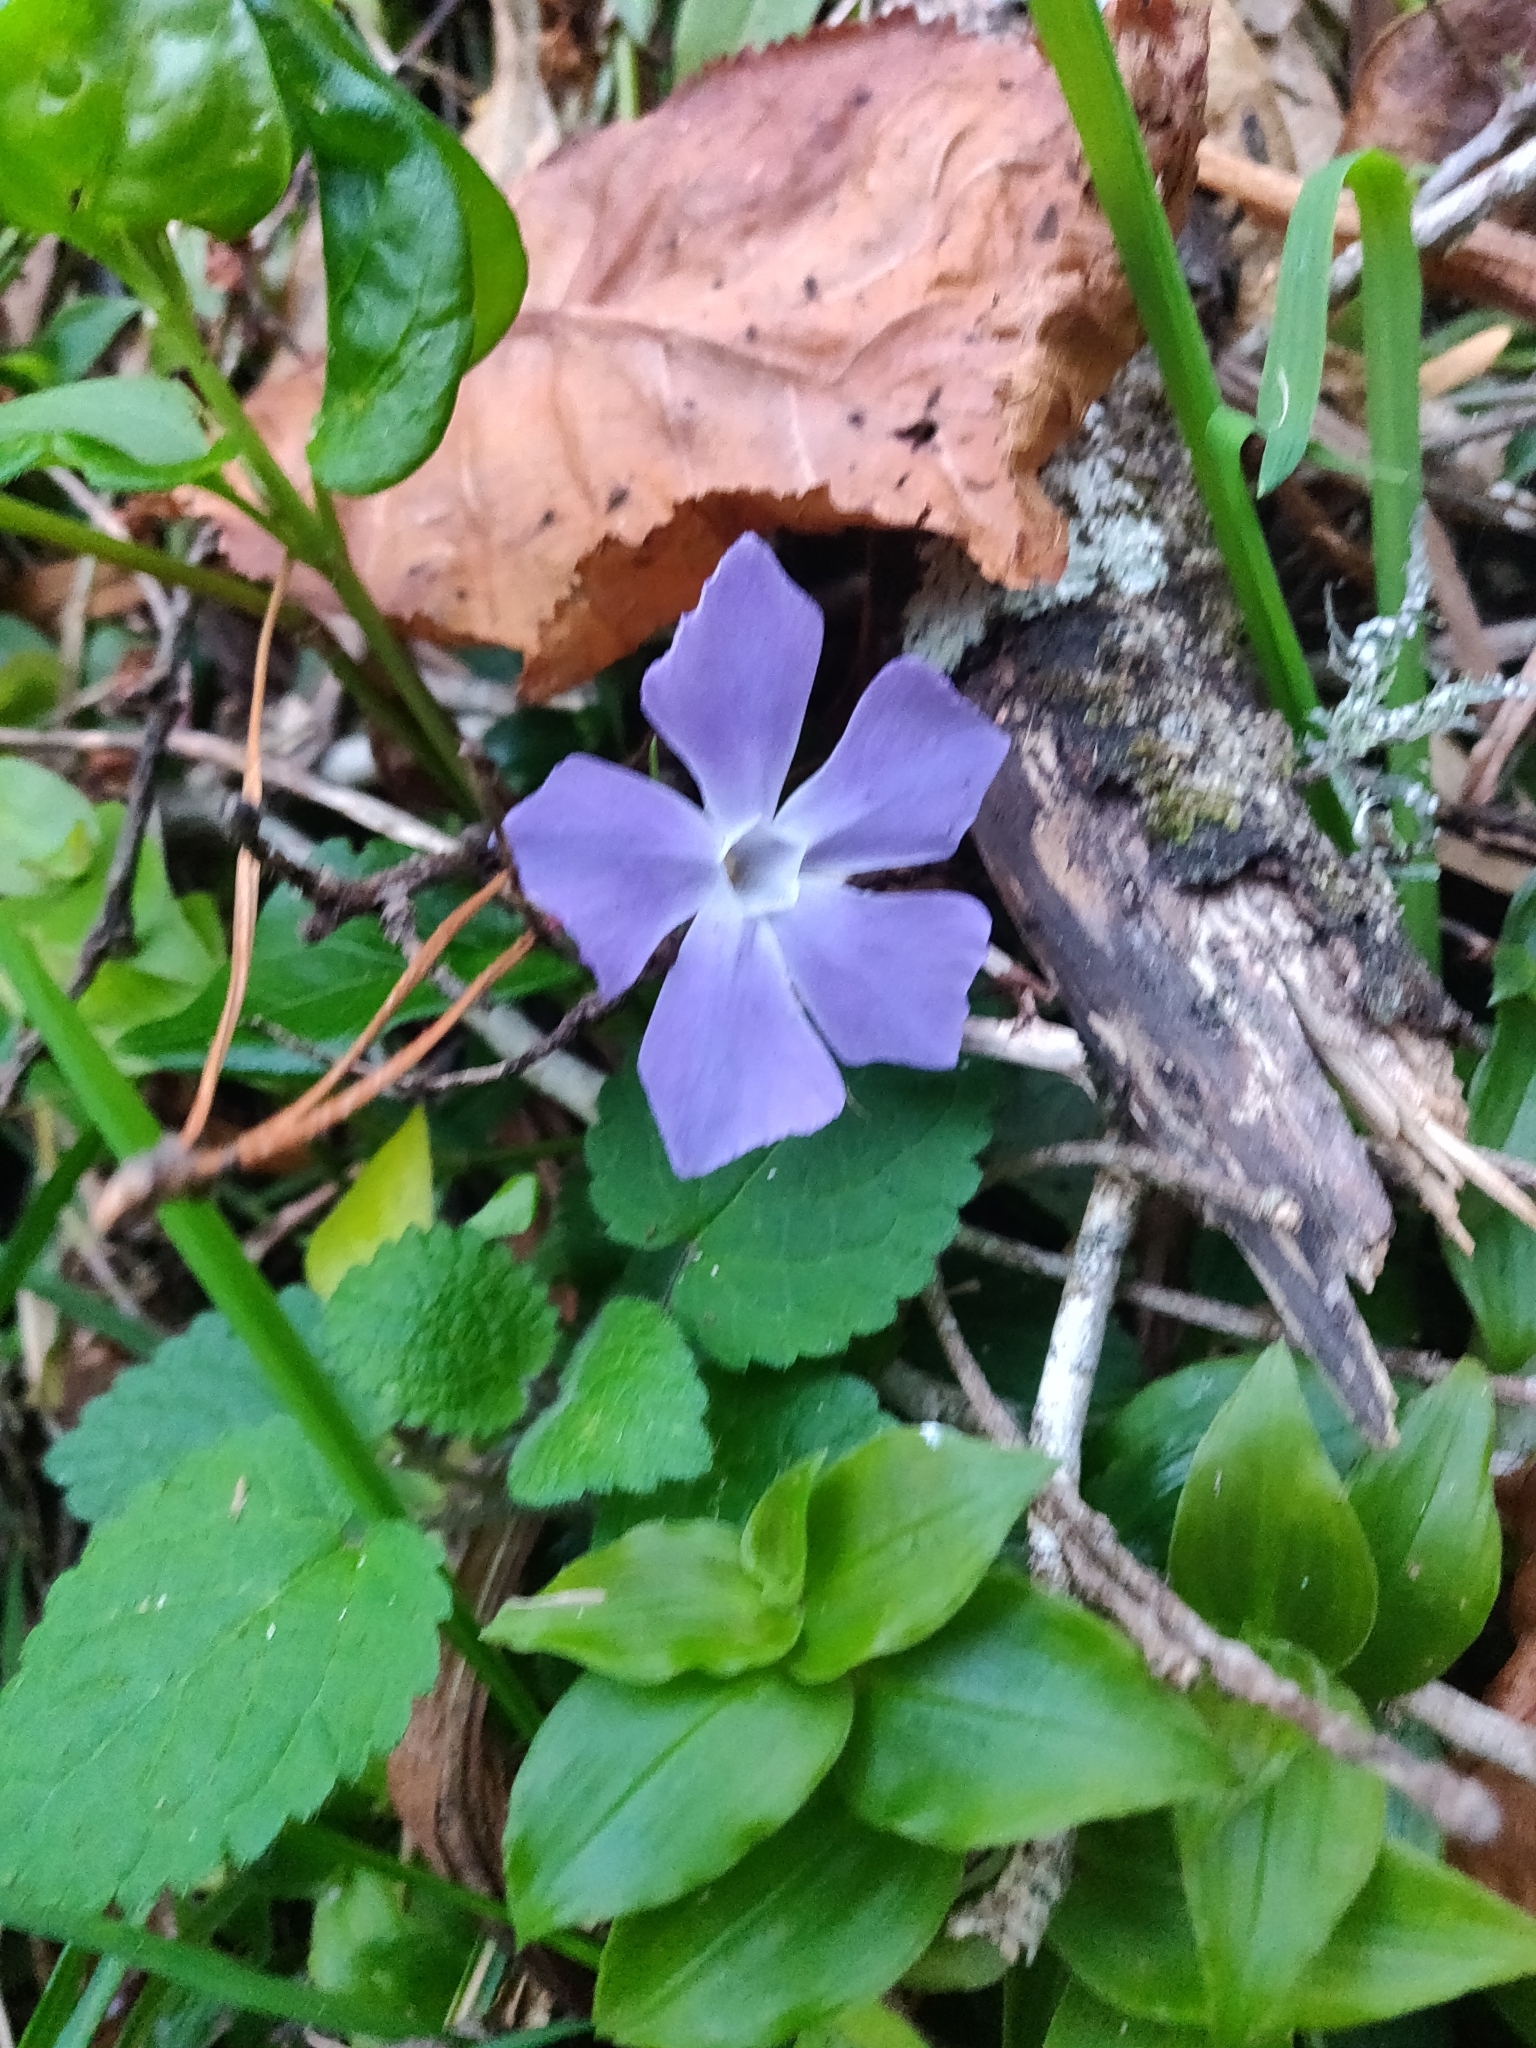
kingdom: Plantae
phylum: Tracheophyta
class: Magnoliopsida
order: Gentianales
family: Apocynaceae
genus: Vinca
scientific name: Vinca major
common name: Greater periwinkle
